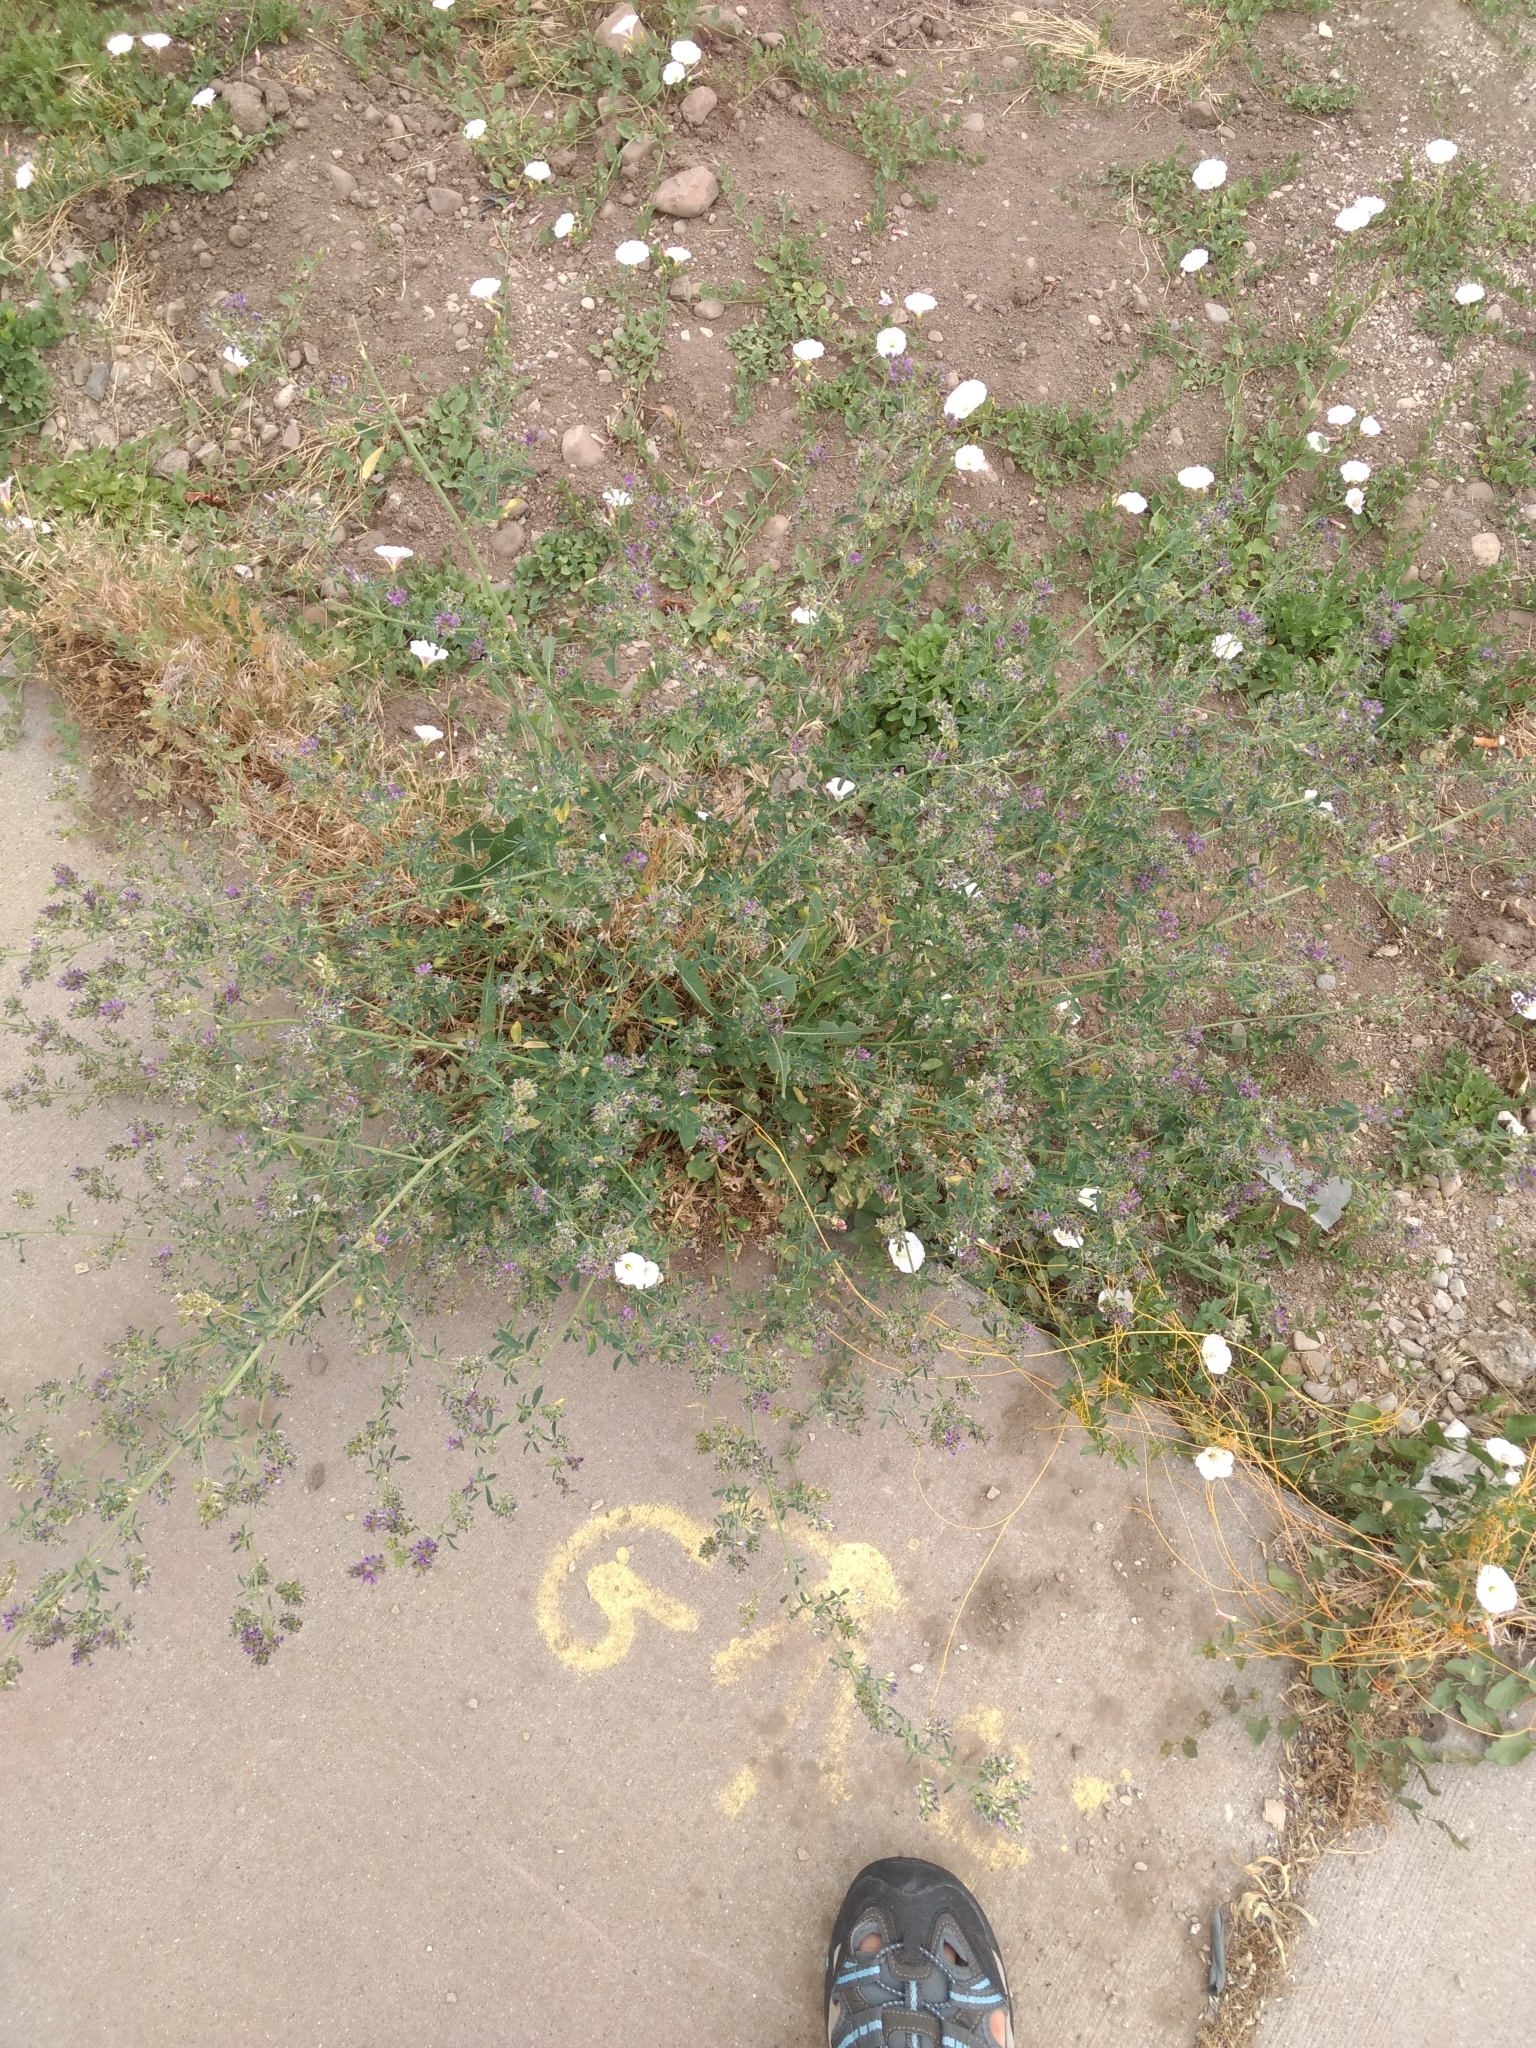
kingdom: Plantae
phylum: Tracheophyta
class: Magnoliopsida
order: Fabales
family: Fabaceae
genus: Medicago
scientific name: Medicago sativa
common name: Alfalfa
